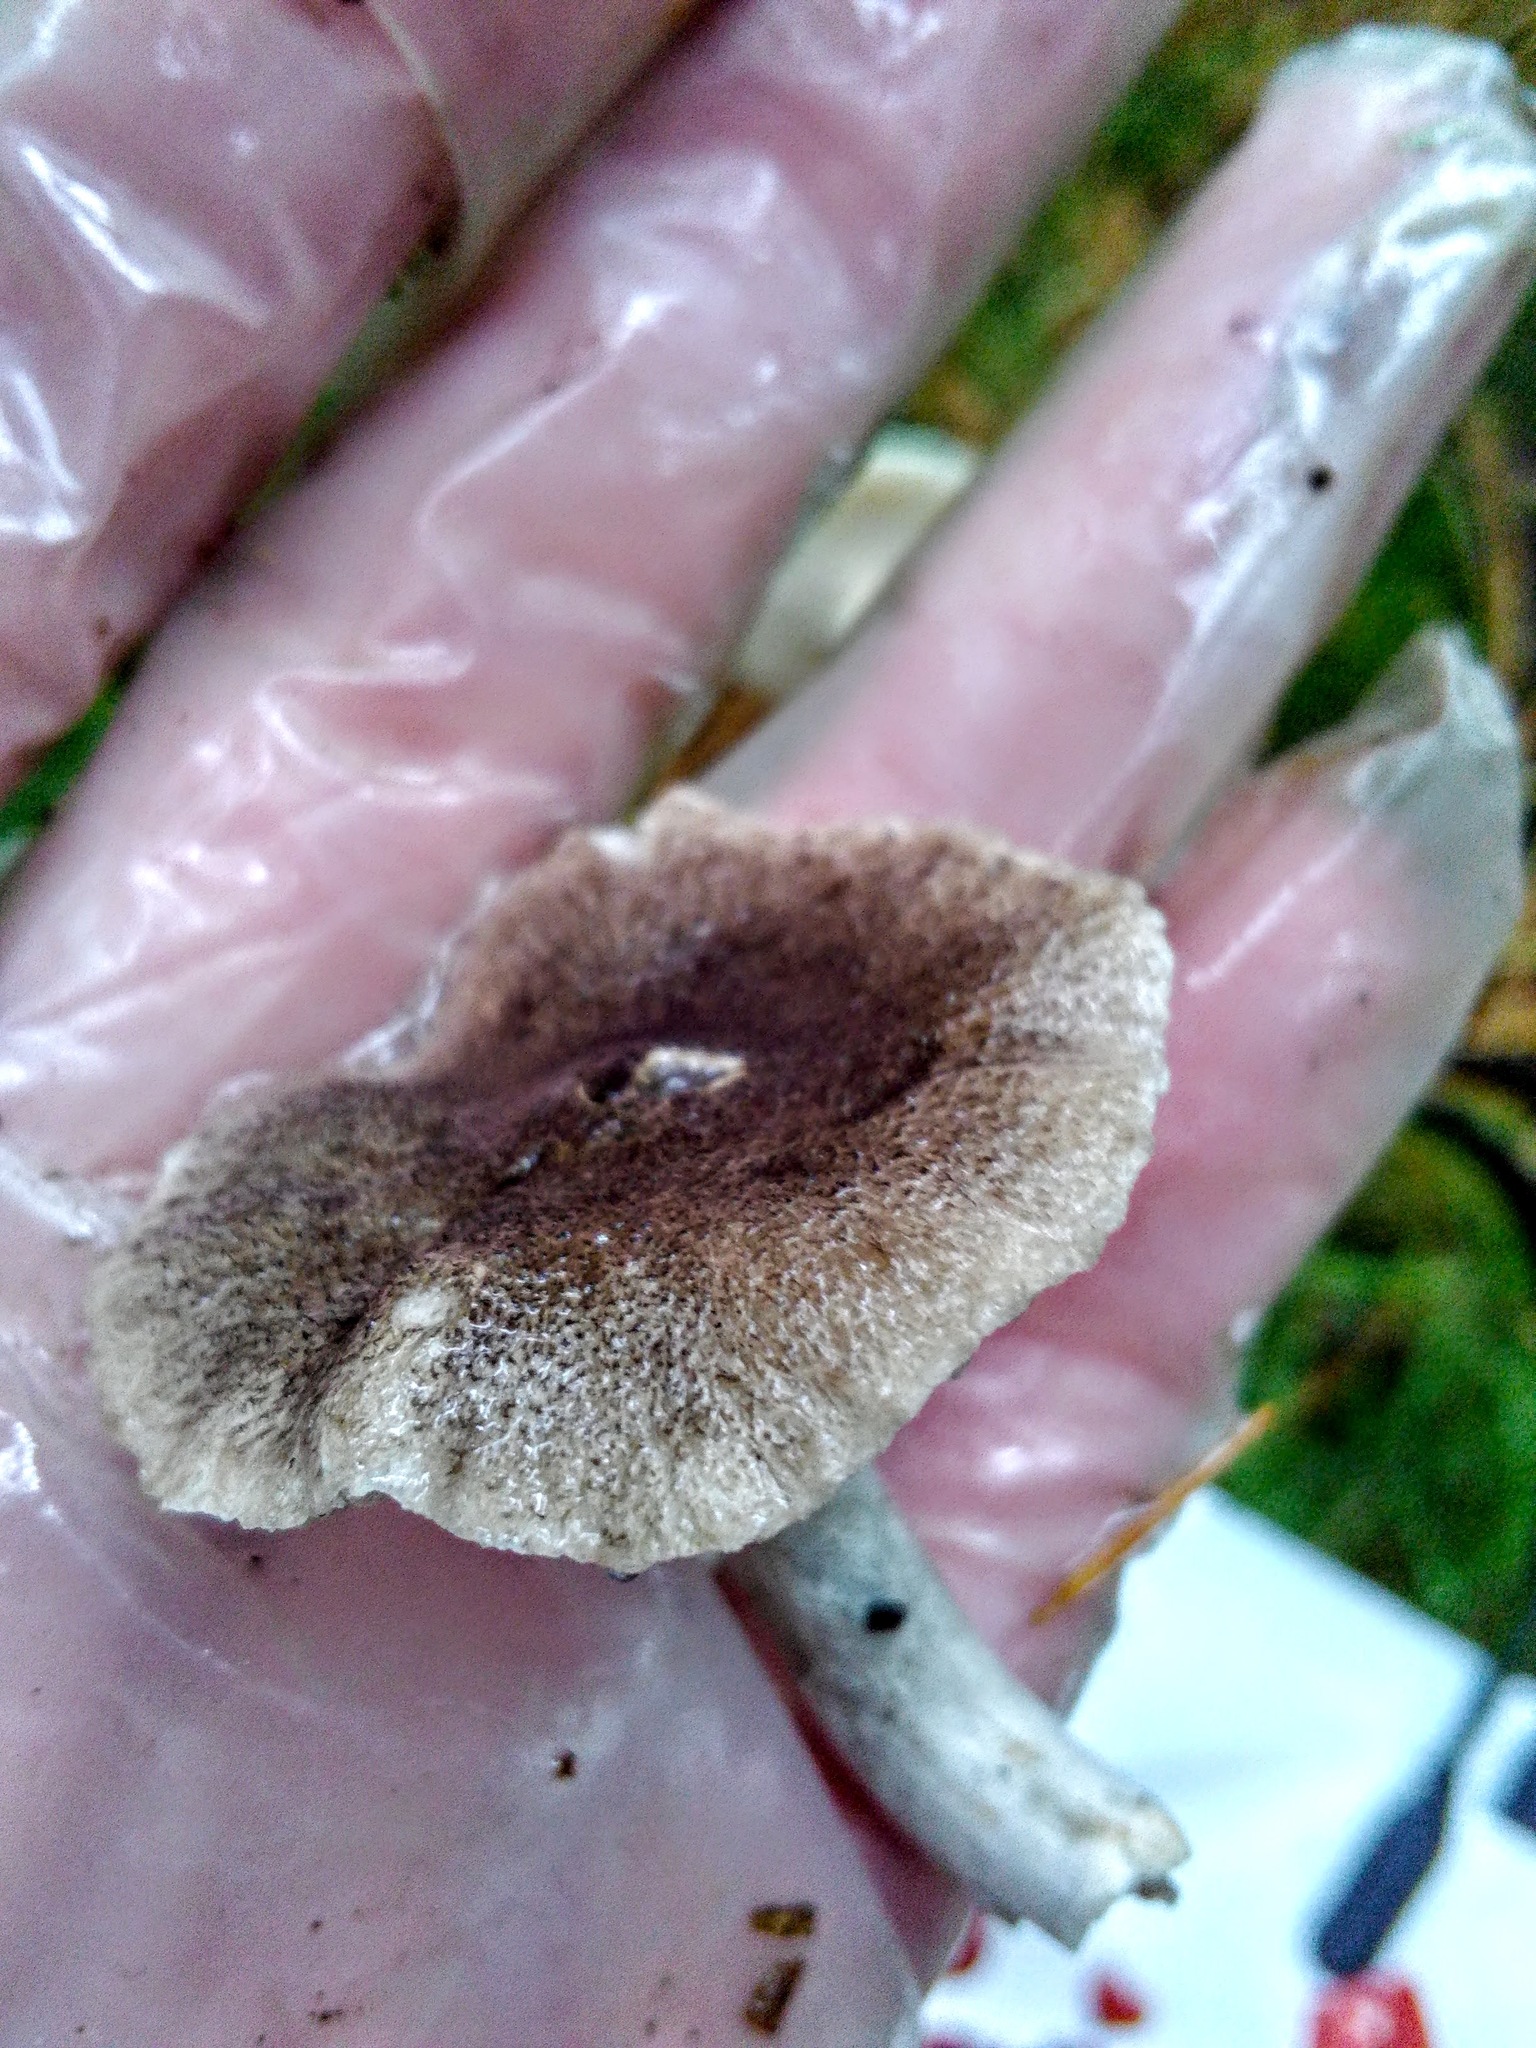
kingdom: Fungi
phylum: Basidiomycota
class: Agaricomycetes
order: Agaricales
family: Tricholomataceae
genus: Tricholoma
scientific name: Tricholoma terreum
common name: Grey knight
